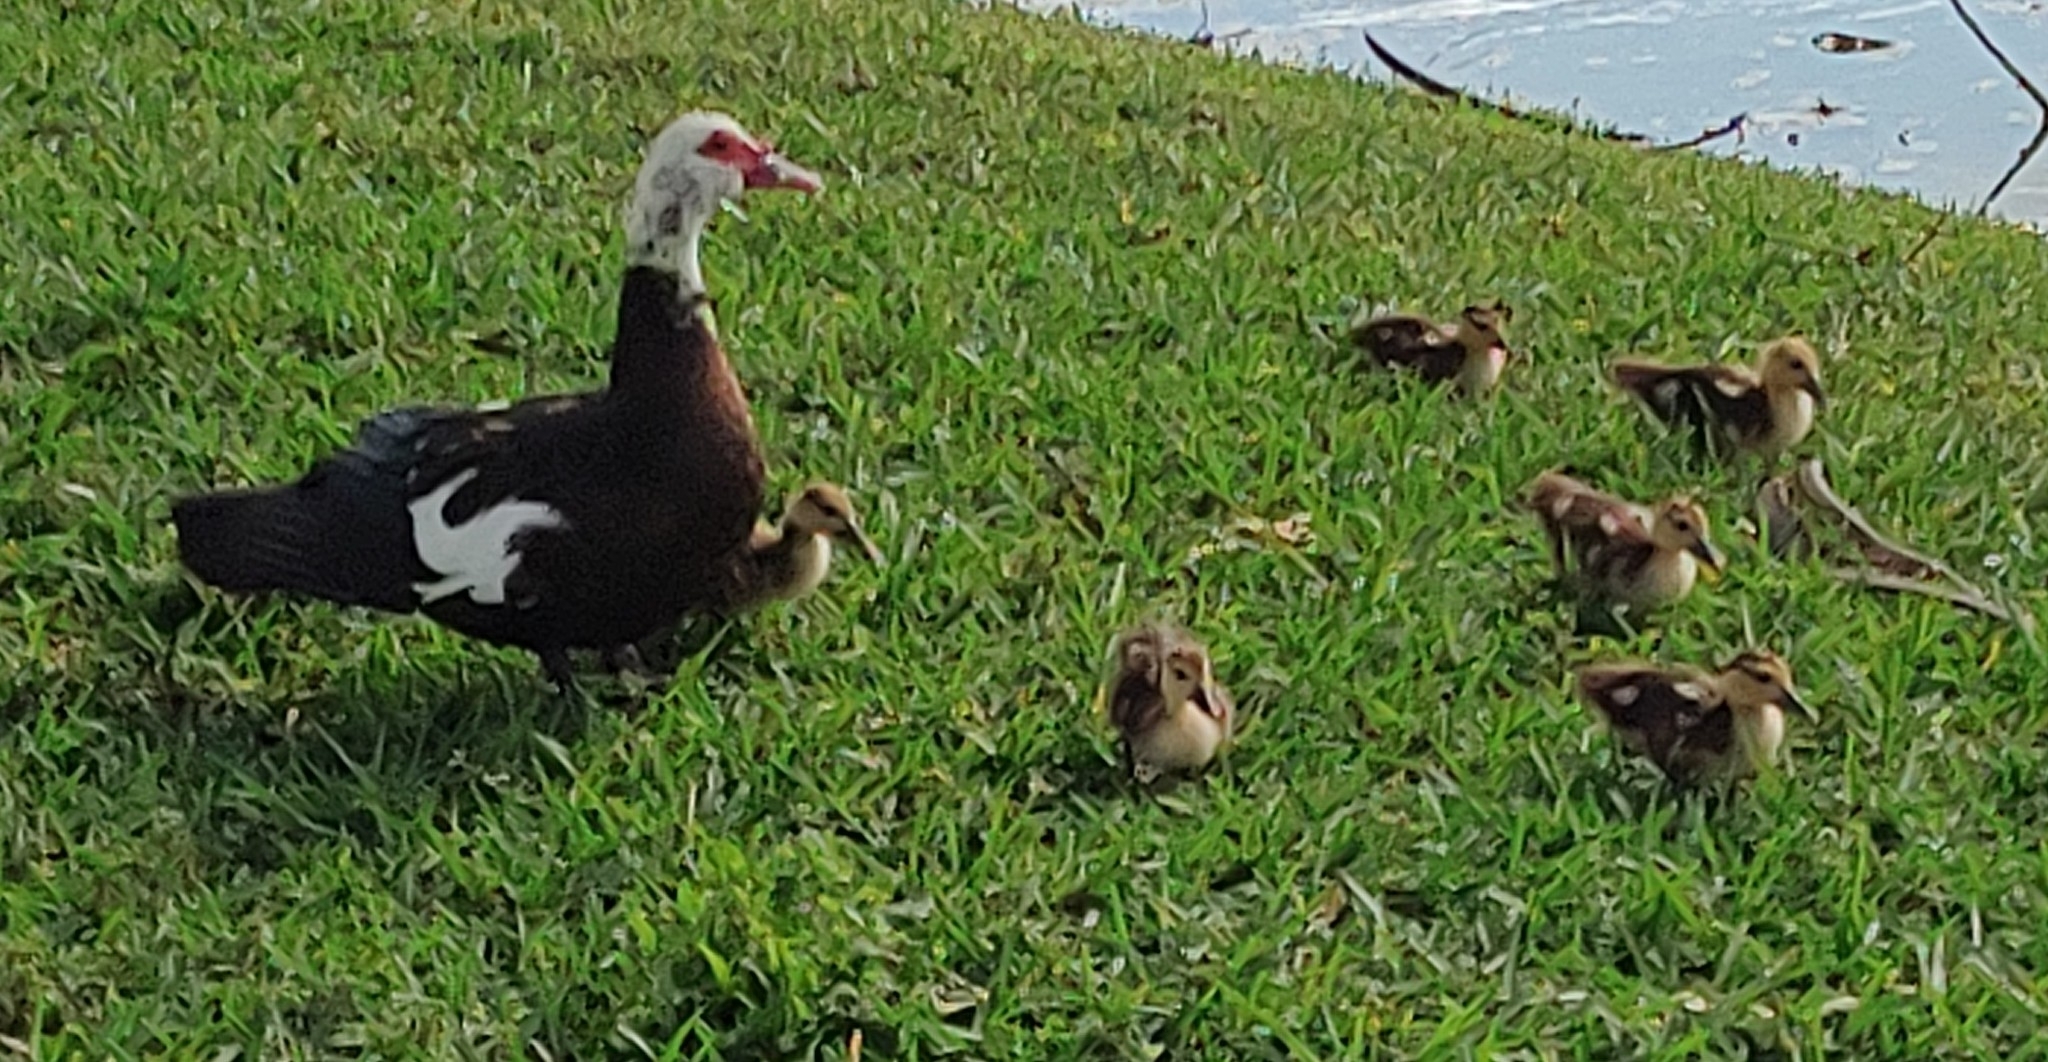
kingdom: Animalia
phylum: Chordata
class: Aves
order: Anseriformes
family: Anatidae
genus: Cairina
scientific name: Cairina moschata
